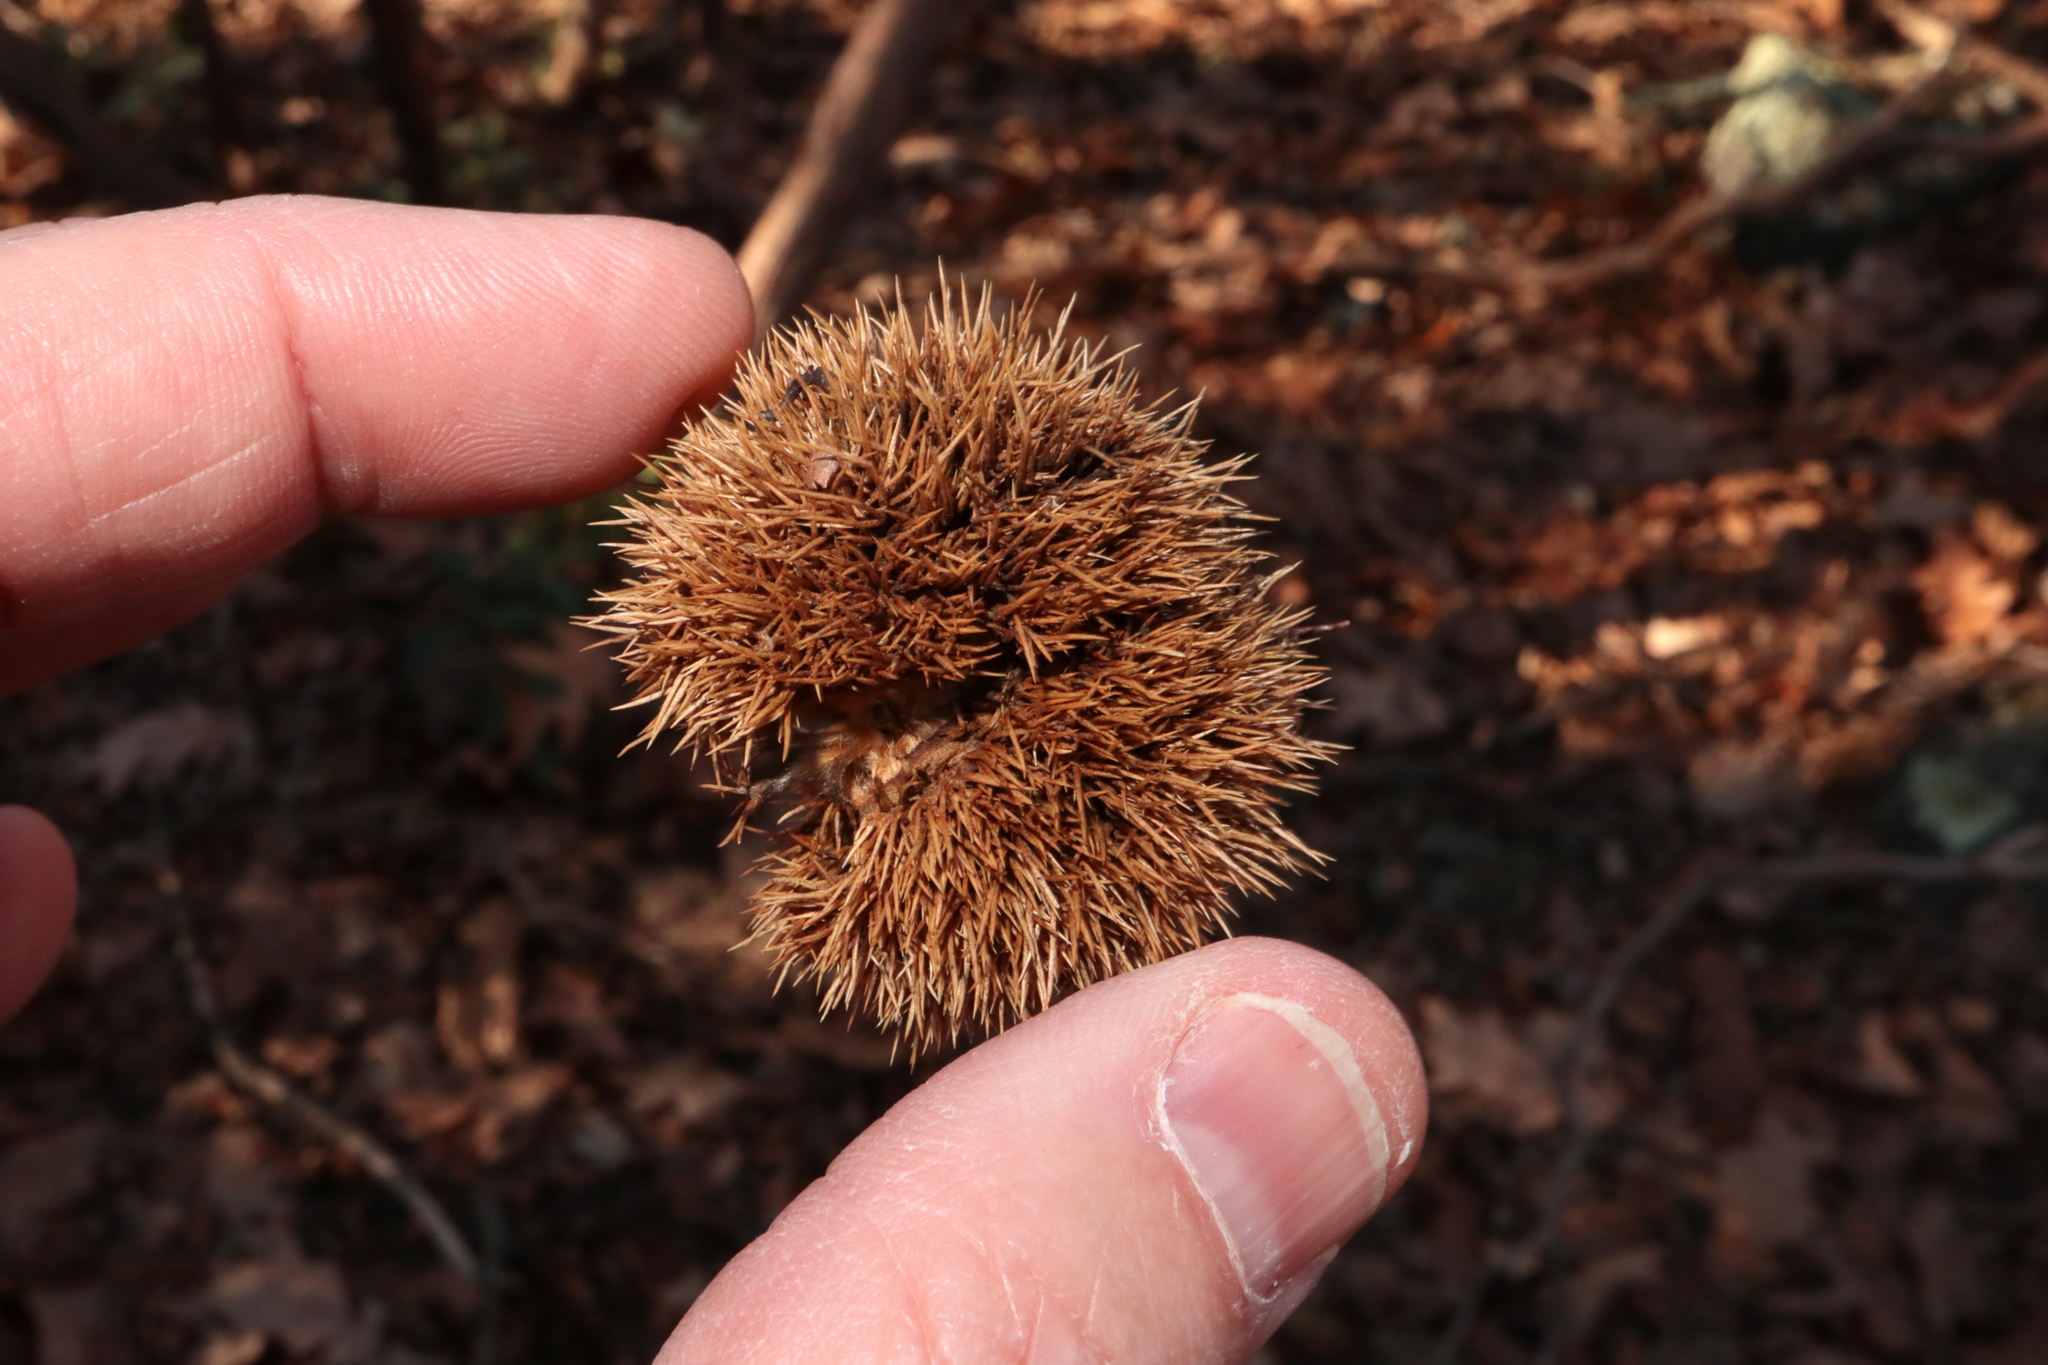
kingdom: Plantae
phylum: Tracheophyta
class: Magnoliopsida
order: Fagales
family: Fagaceae
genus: Castanea
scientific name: Castanea dentata
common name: American chestnut
